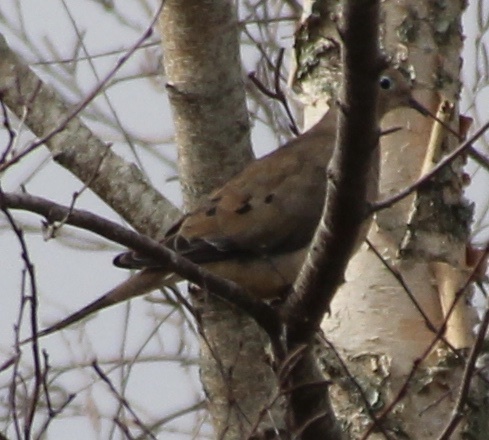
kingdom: Animalia
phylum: Chordata
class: Aves
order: Columbiformes
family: Columbidae
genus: Zenaida
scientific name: Zenaida macroura
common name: Mourning dove
